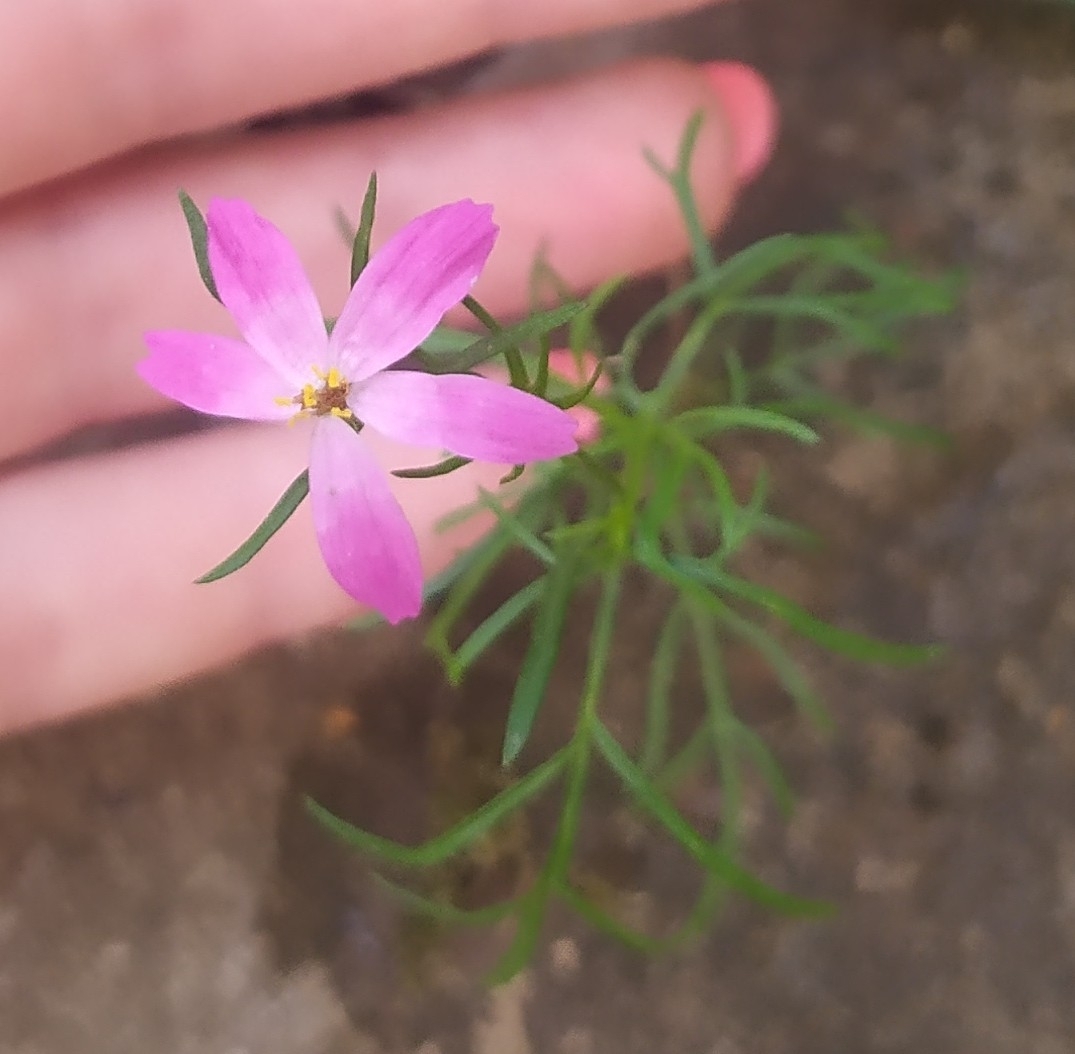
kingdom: Plantae
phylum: Tracheophyta
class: Magnoliopsida
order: Asterales
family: Asteraceae
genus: Cosmos
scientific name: Cosmos bipinnatus
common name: Garden cosmos
